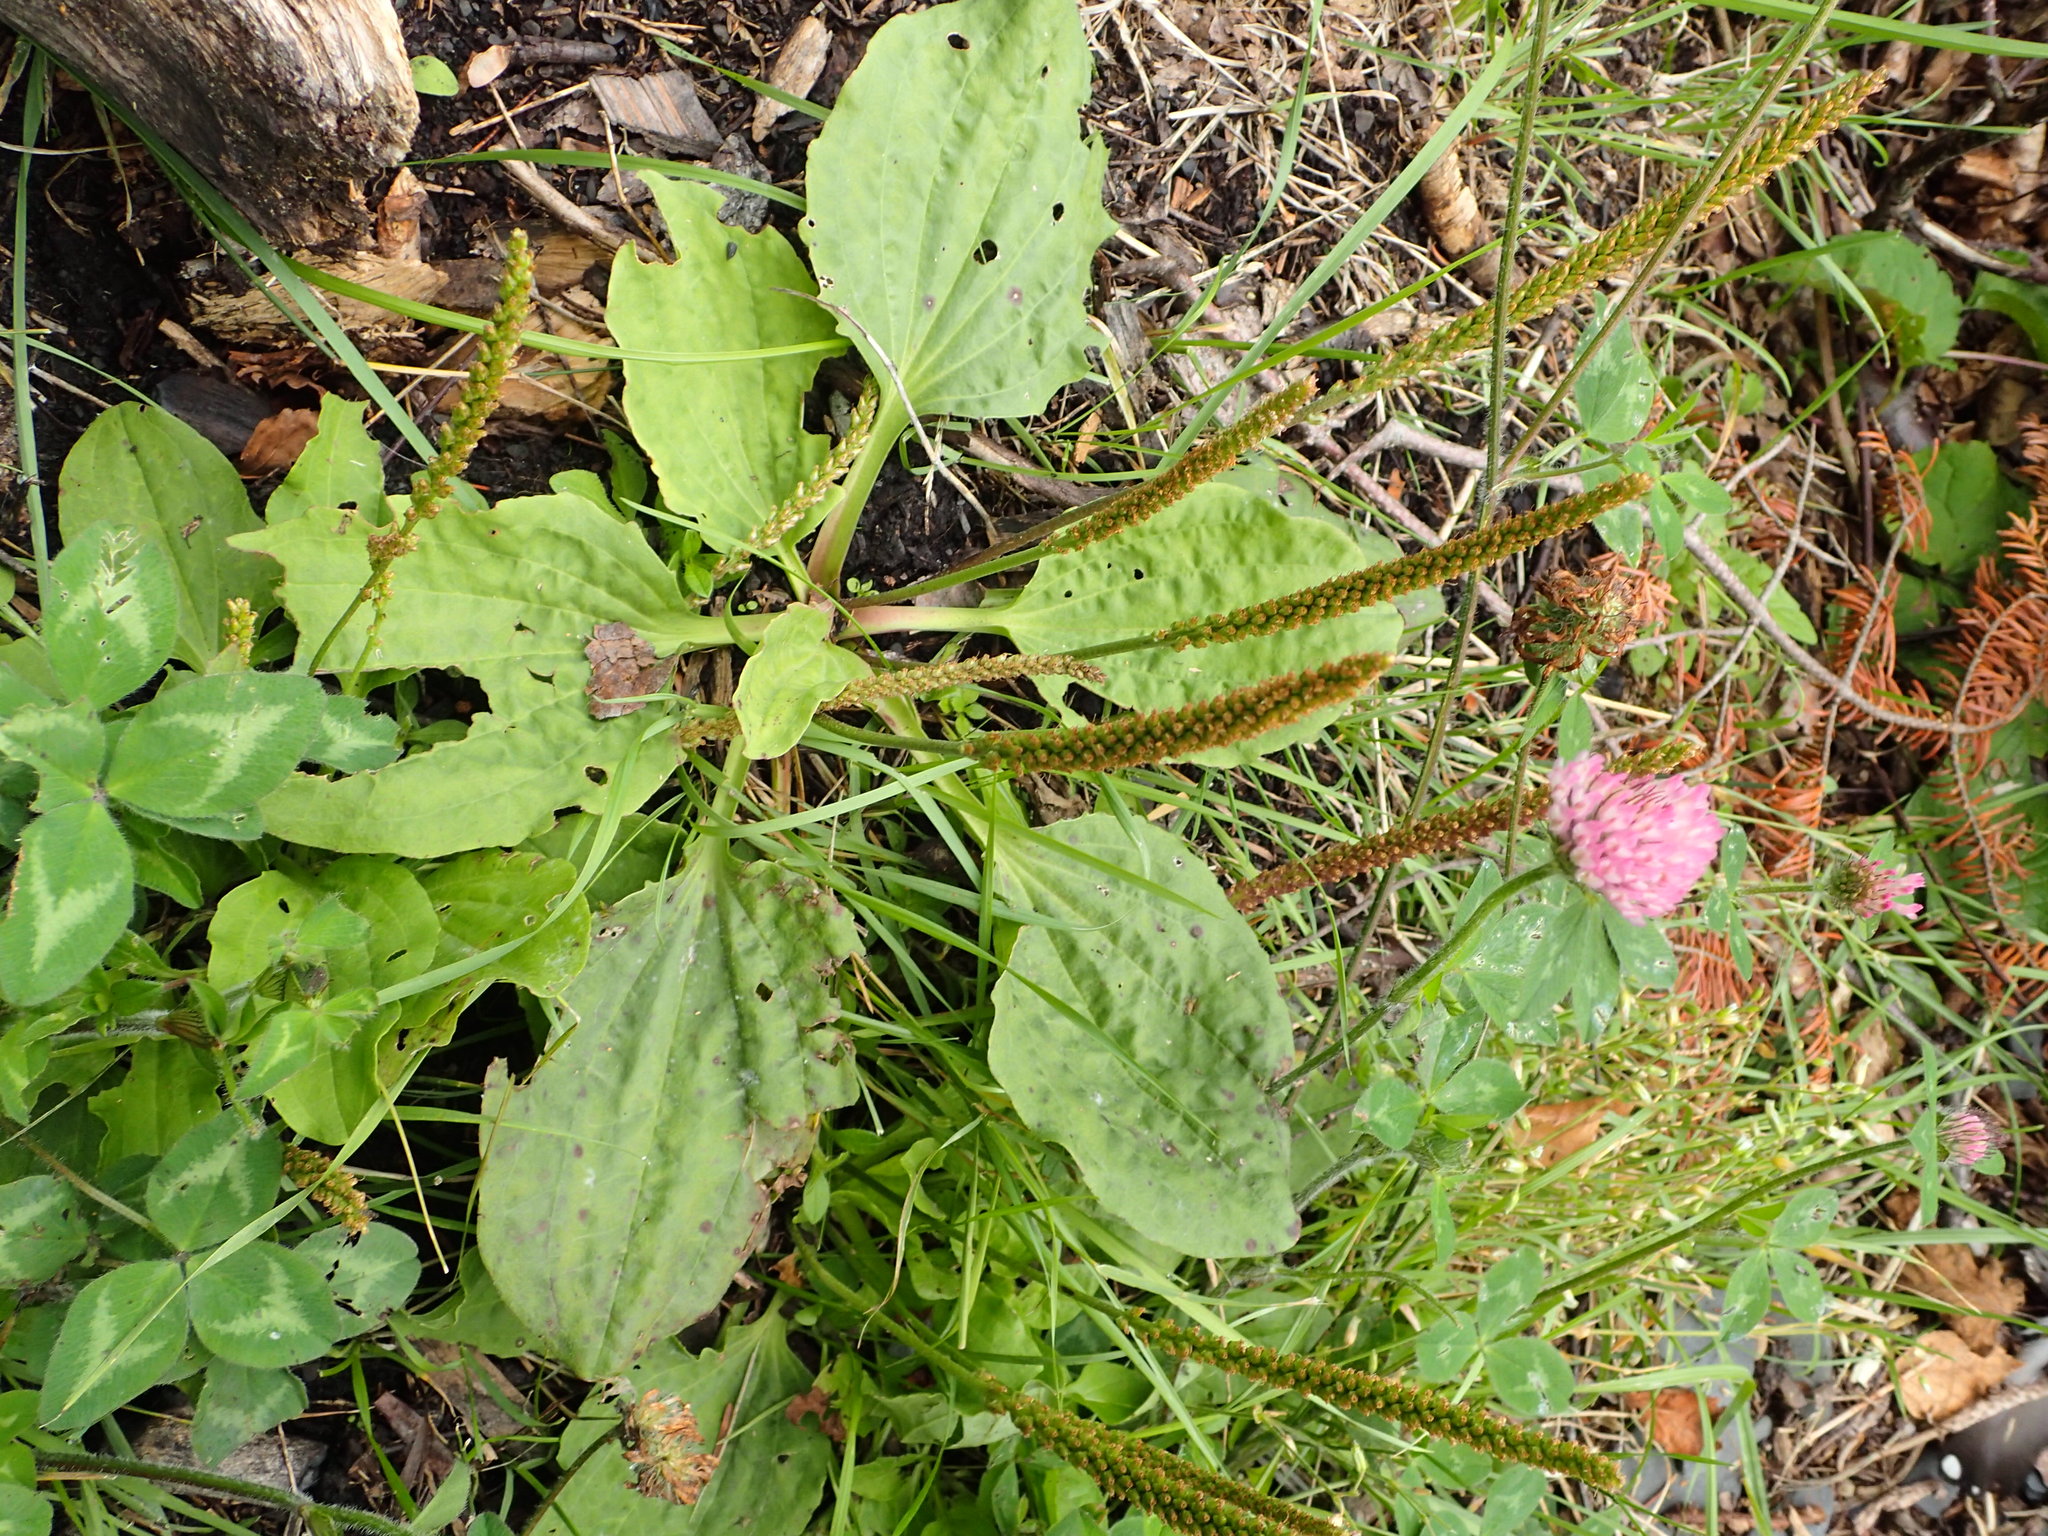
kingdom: Plantae
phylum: Tracheophyta
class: Magnoliopsida
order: Lamiales
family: Plantaginaceae
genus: Plantago
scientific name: Plantago major
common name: Common plantain
